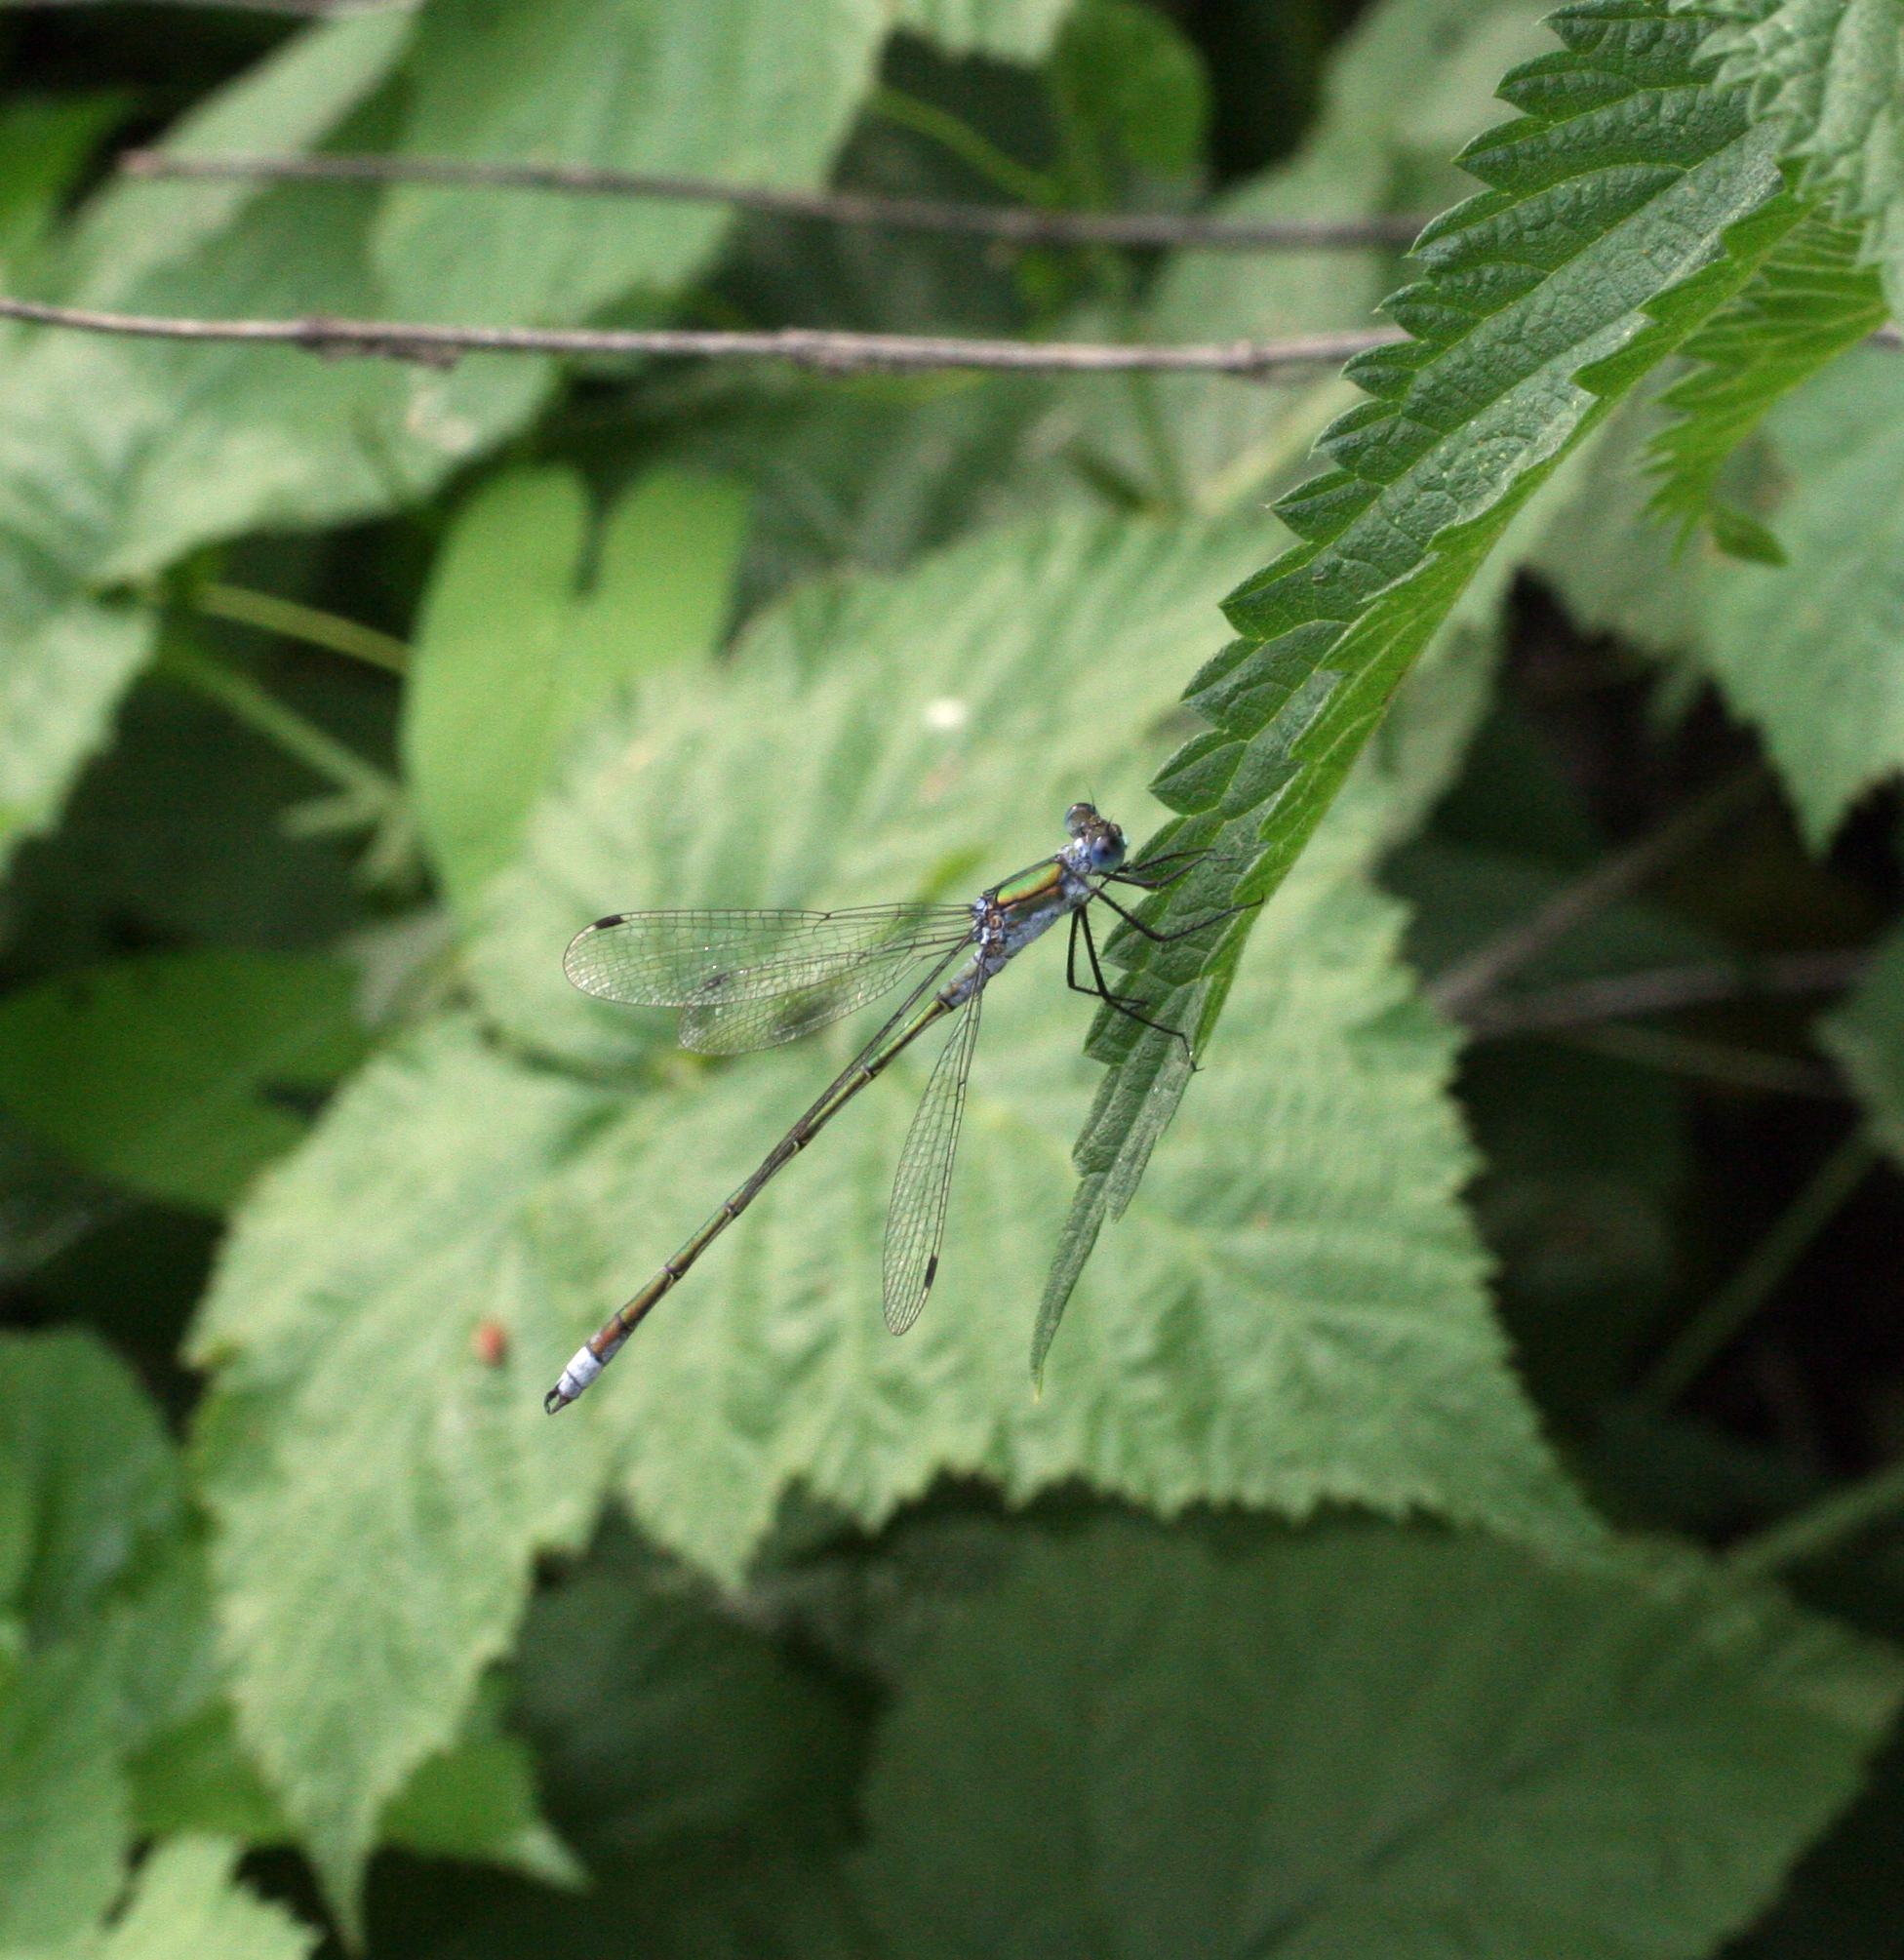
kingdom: Animalia
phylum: Arthropoda
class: Insecta
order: Odonata
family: Lestidae
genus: Lestes
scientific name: Lestes sponsa
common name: Common spreadwing
